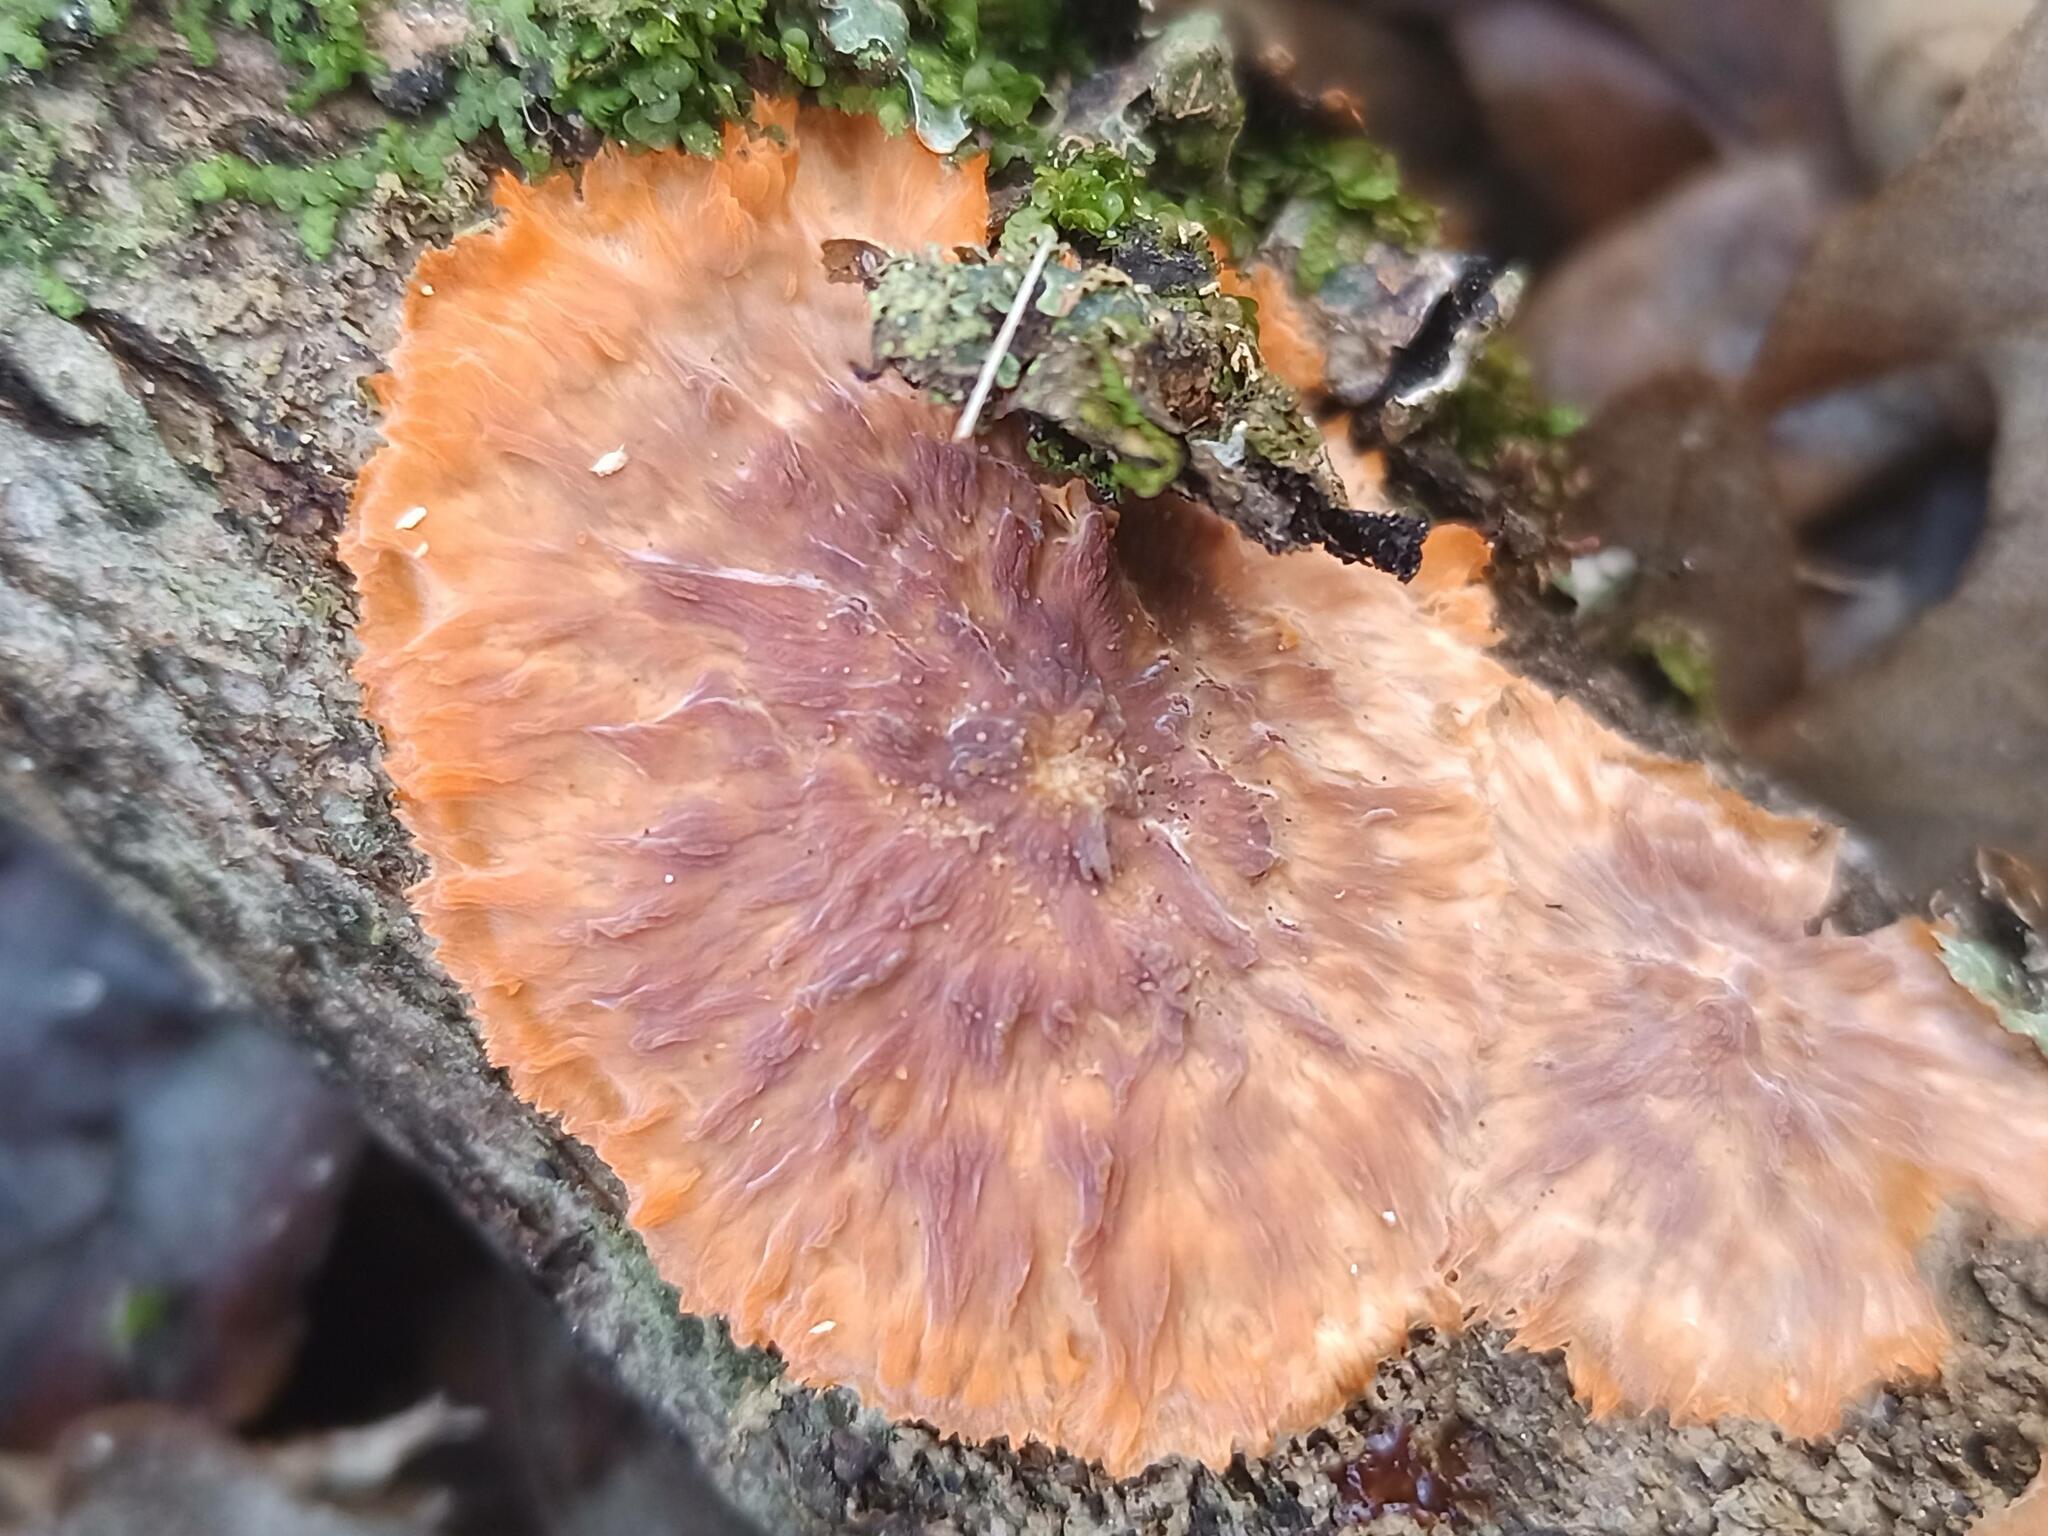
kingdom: Fungi
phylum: Basidiomycota
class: Agaricomycetes
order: Polyporales
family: Meruliaceae
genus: Phlebia
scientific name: Phlebia radiata
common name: Wrinkled crust
